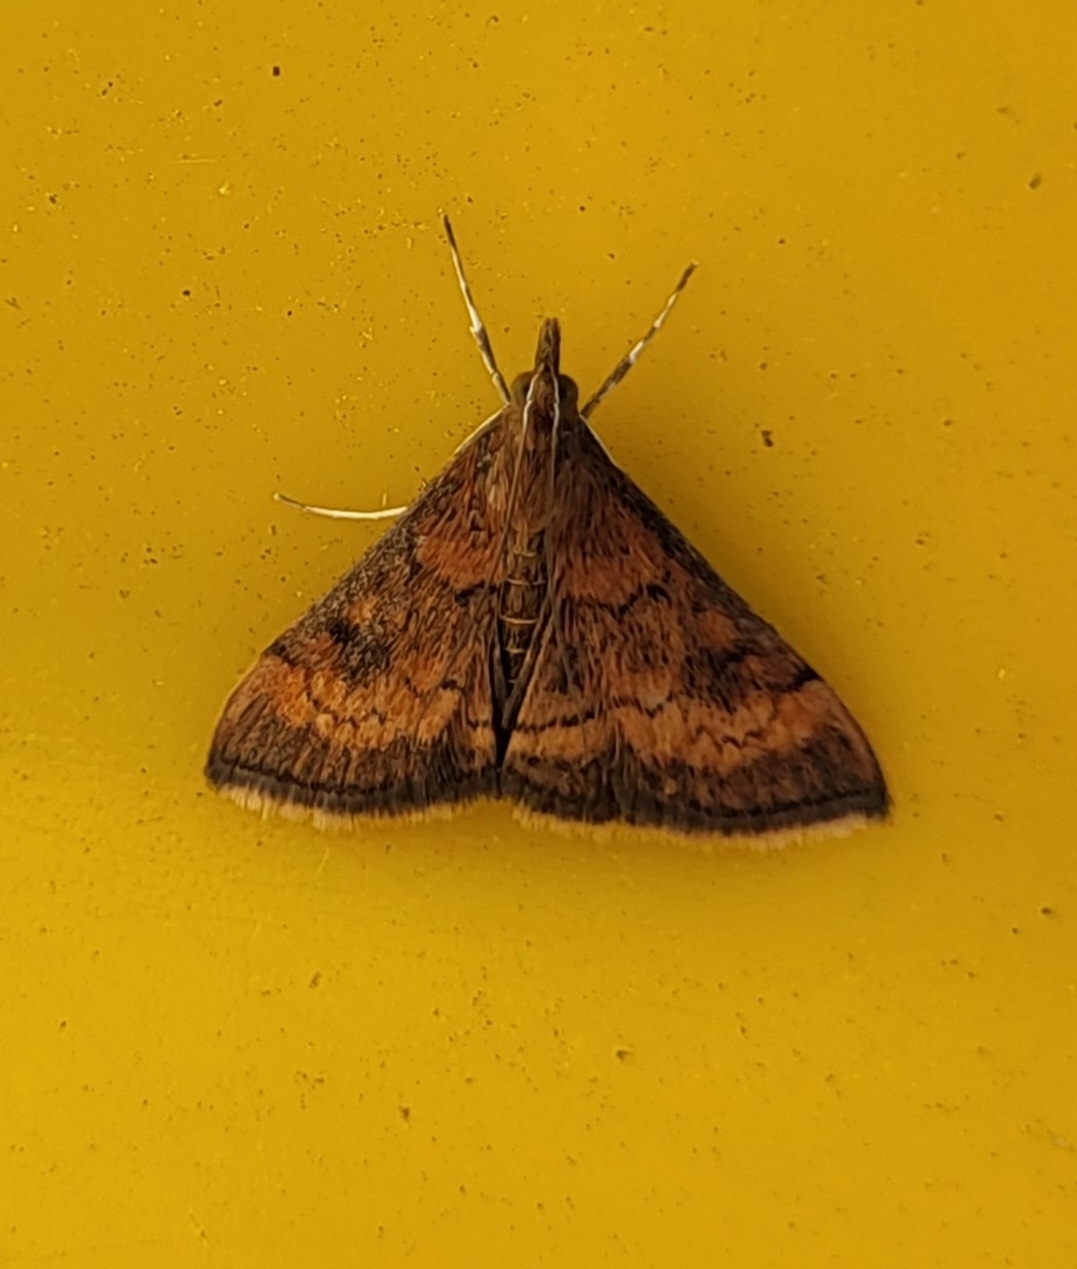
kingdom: Animalia
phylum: Arthropoda
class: Insecta
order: Lepidoptera
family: Crambidae
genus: Pyrausta
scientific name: Pyrausta rubricalis
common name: Variable reddish pyrausta
